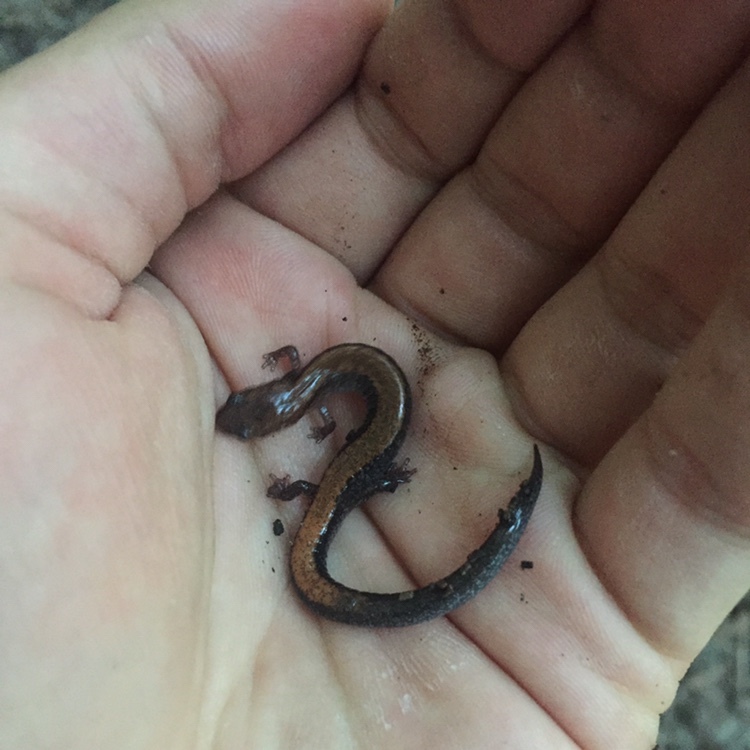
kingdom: Animalia
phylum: Chordata
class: Amphibia
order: Caudata
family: Plethodontidae
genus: Plethodon
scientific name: Plethodon cinereus
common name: Redback salamander
